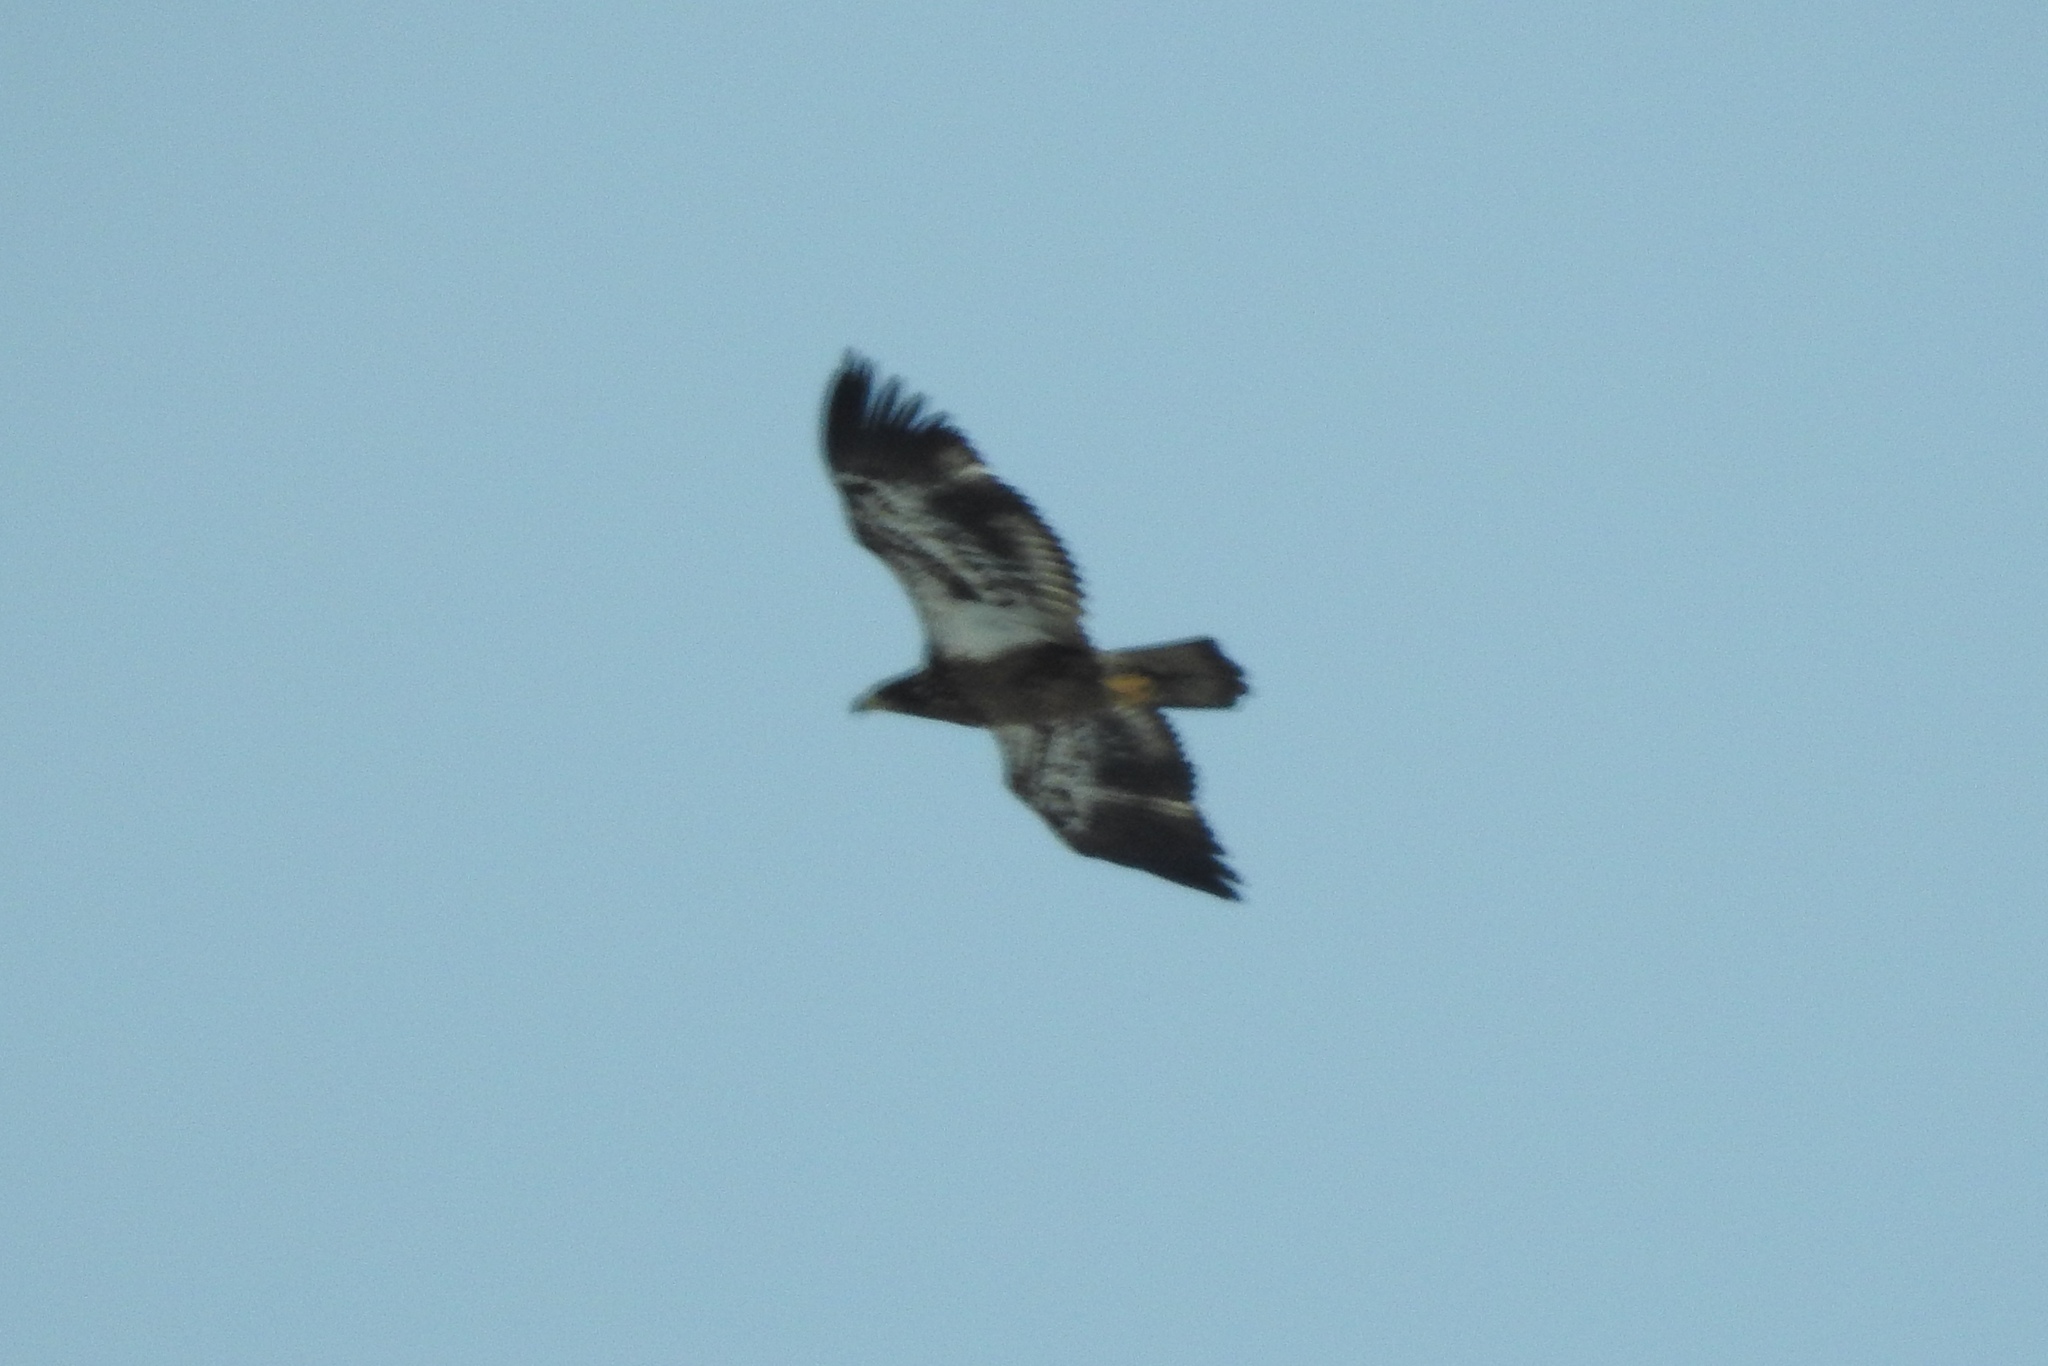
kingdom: Animalia
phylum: Chordata
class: Aves
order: Accipitriformes
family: Accipitridae
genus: Haliaeetus
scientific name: Haliaeetus leucocephalus
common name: Bald eagle
